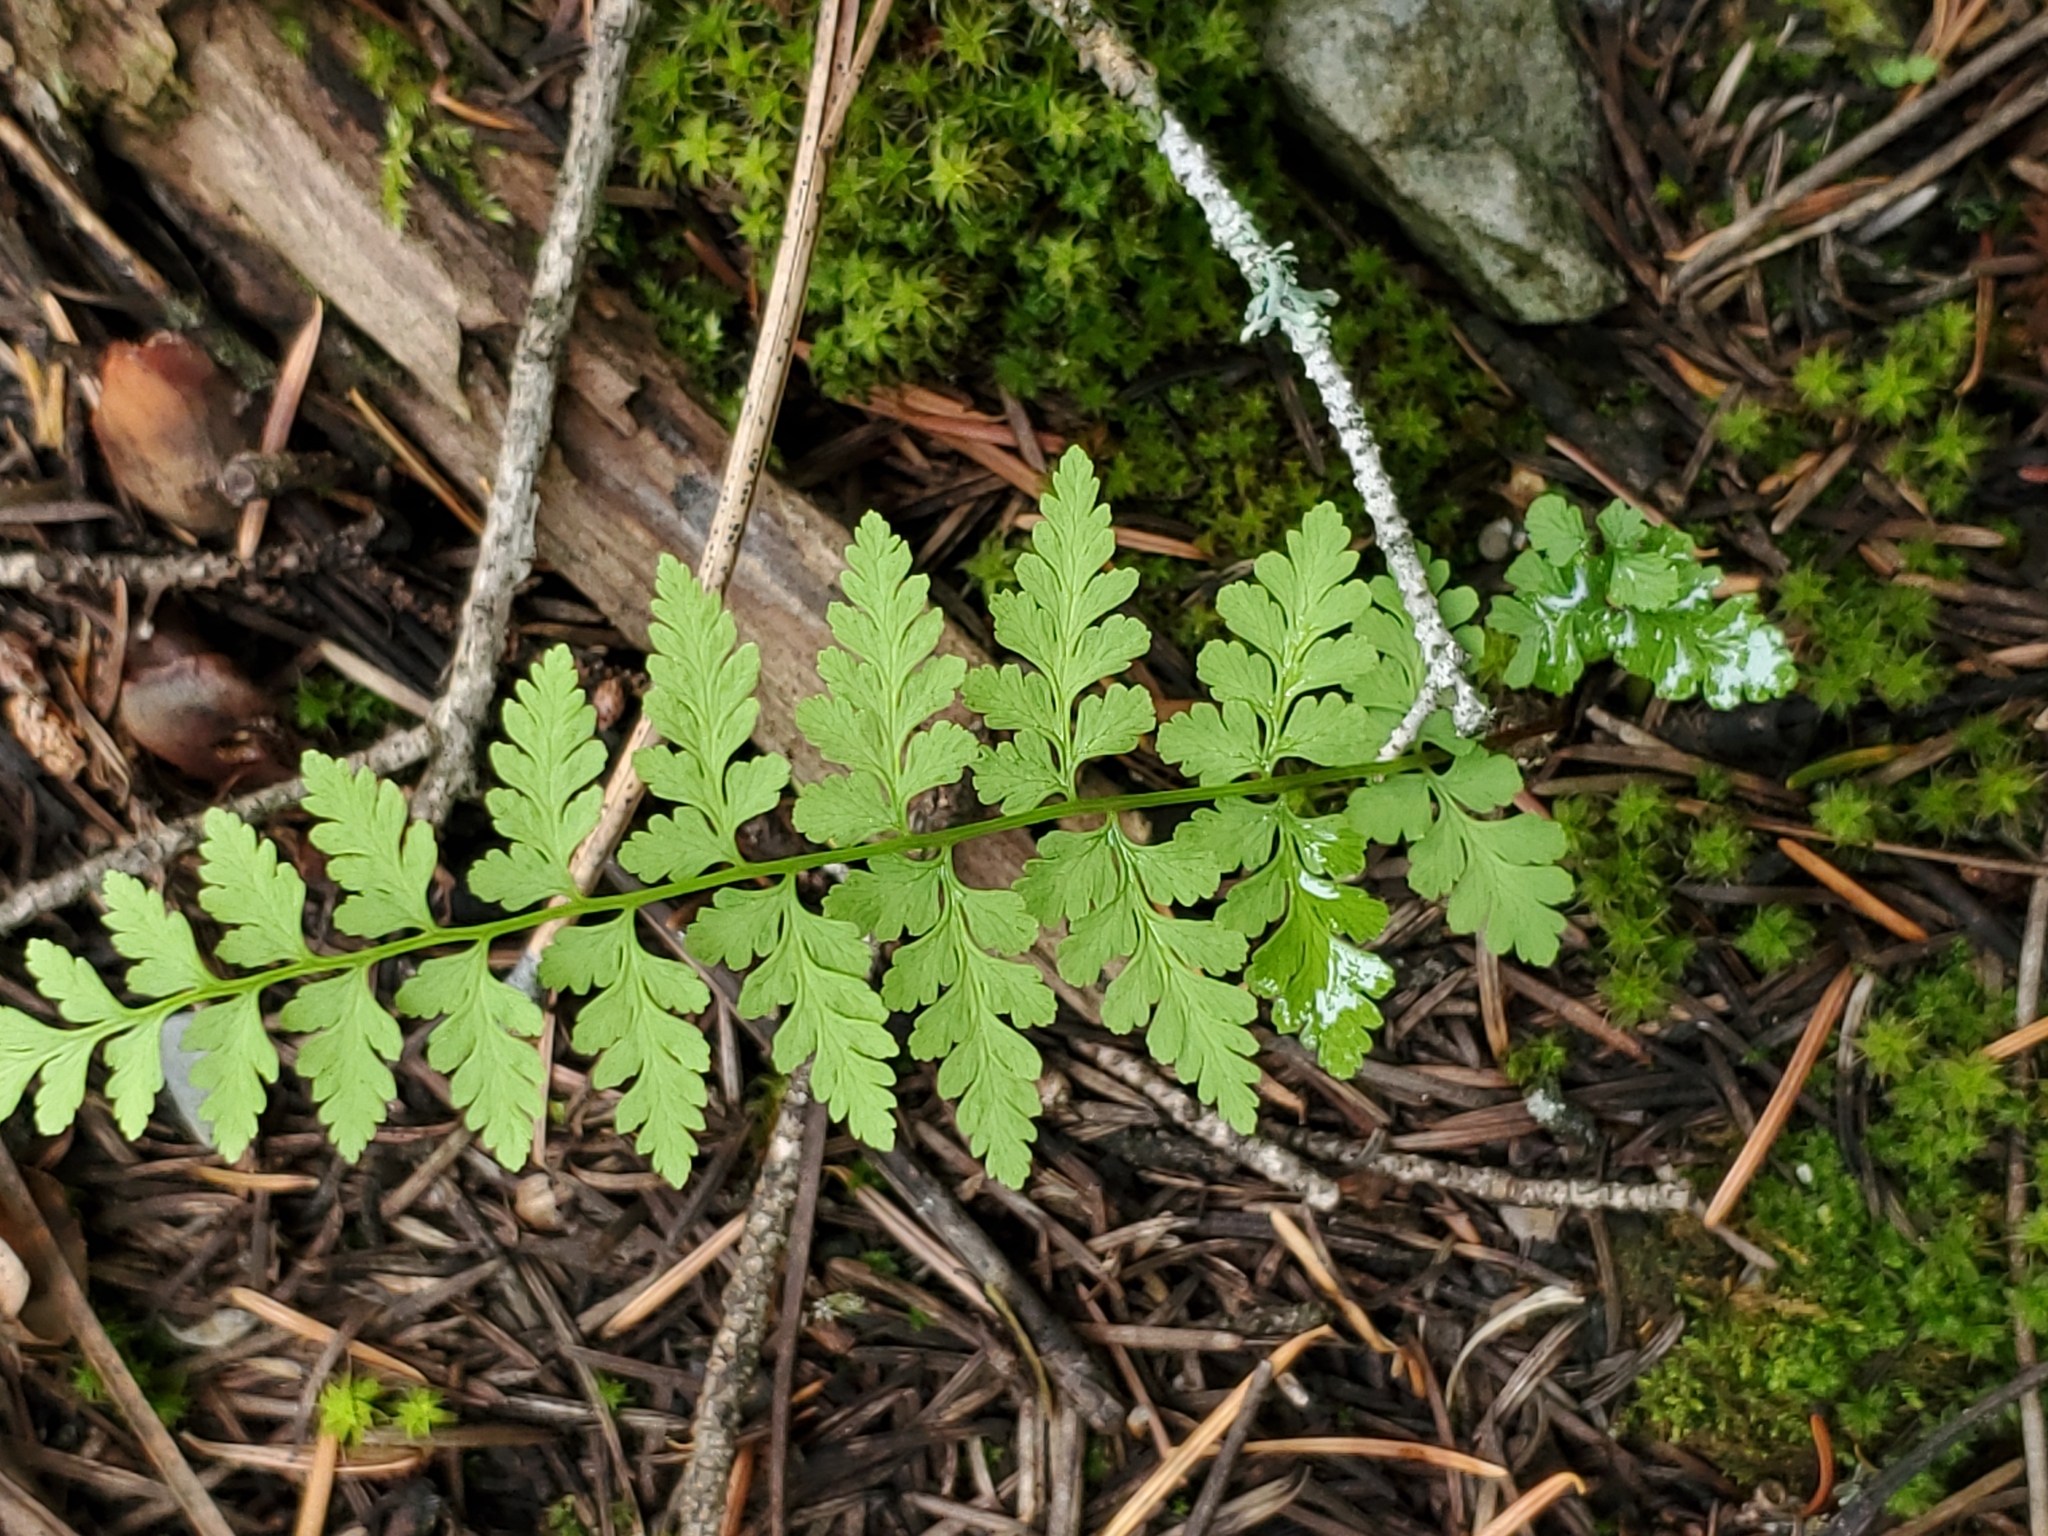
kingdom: Plantae
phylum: Tracheophyta
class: Polypodiopsida
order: Polypodiales
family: Cystopteridaceae
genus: Cystopteris
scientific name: Cystopteris fragilis
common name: Brittle bladder fern
